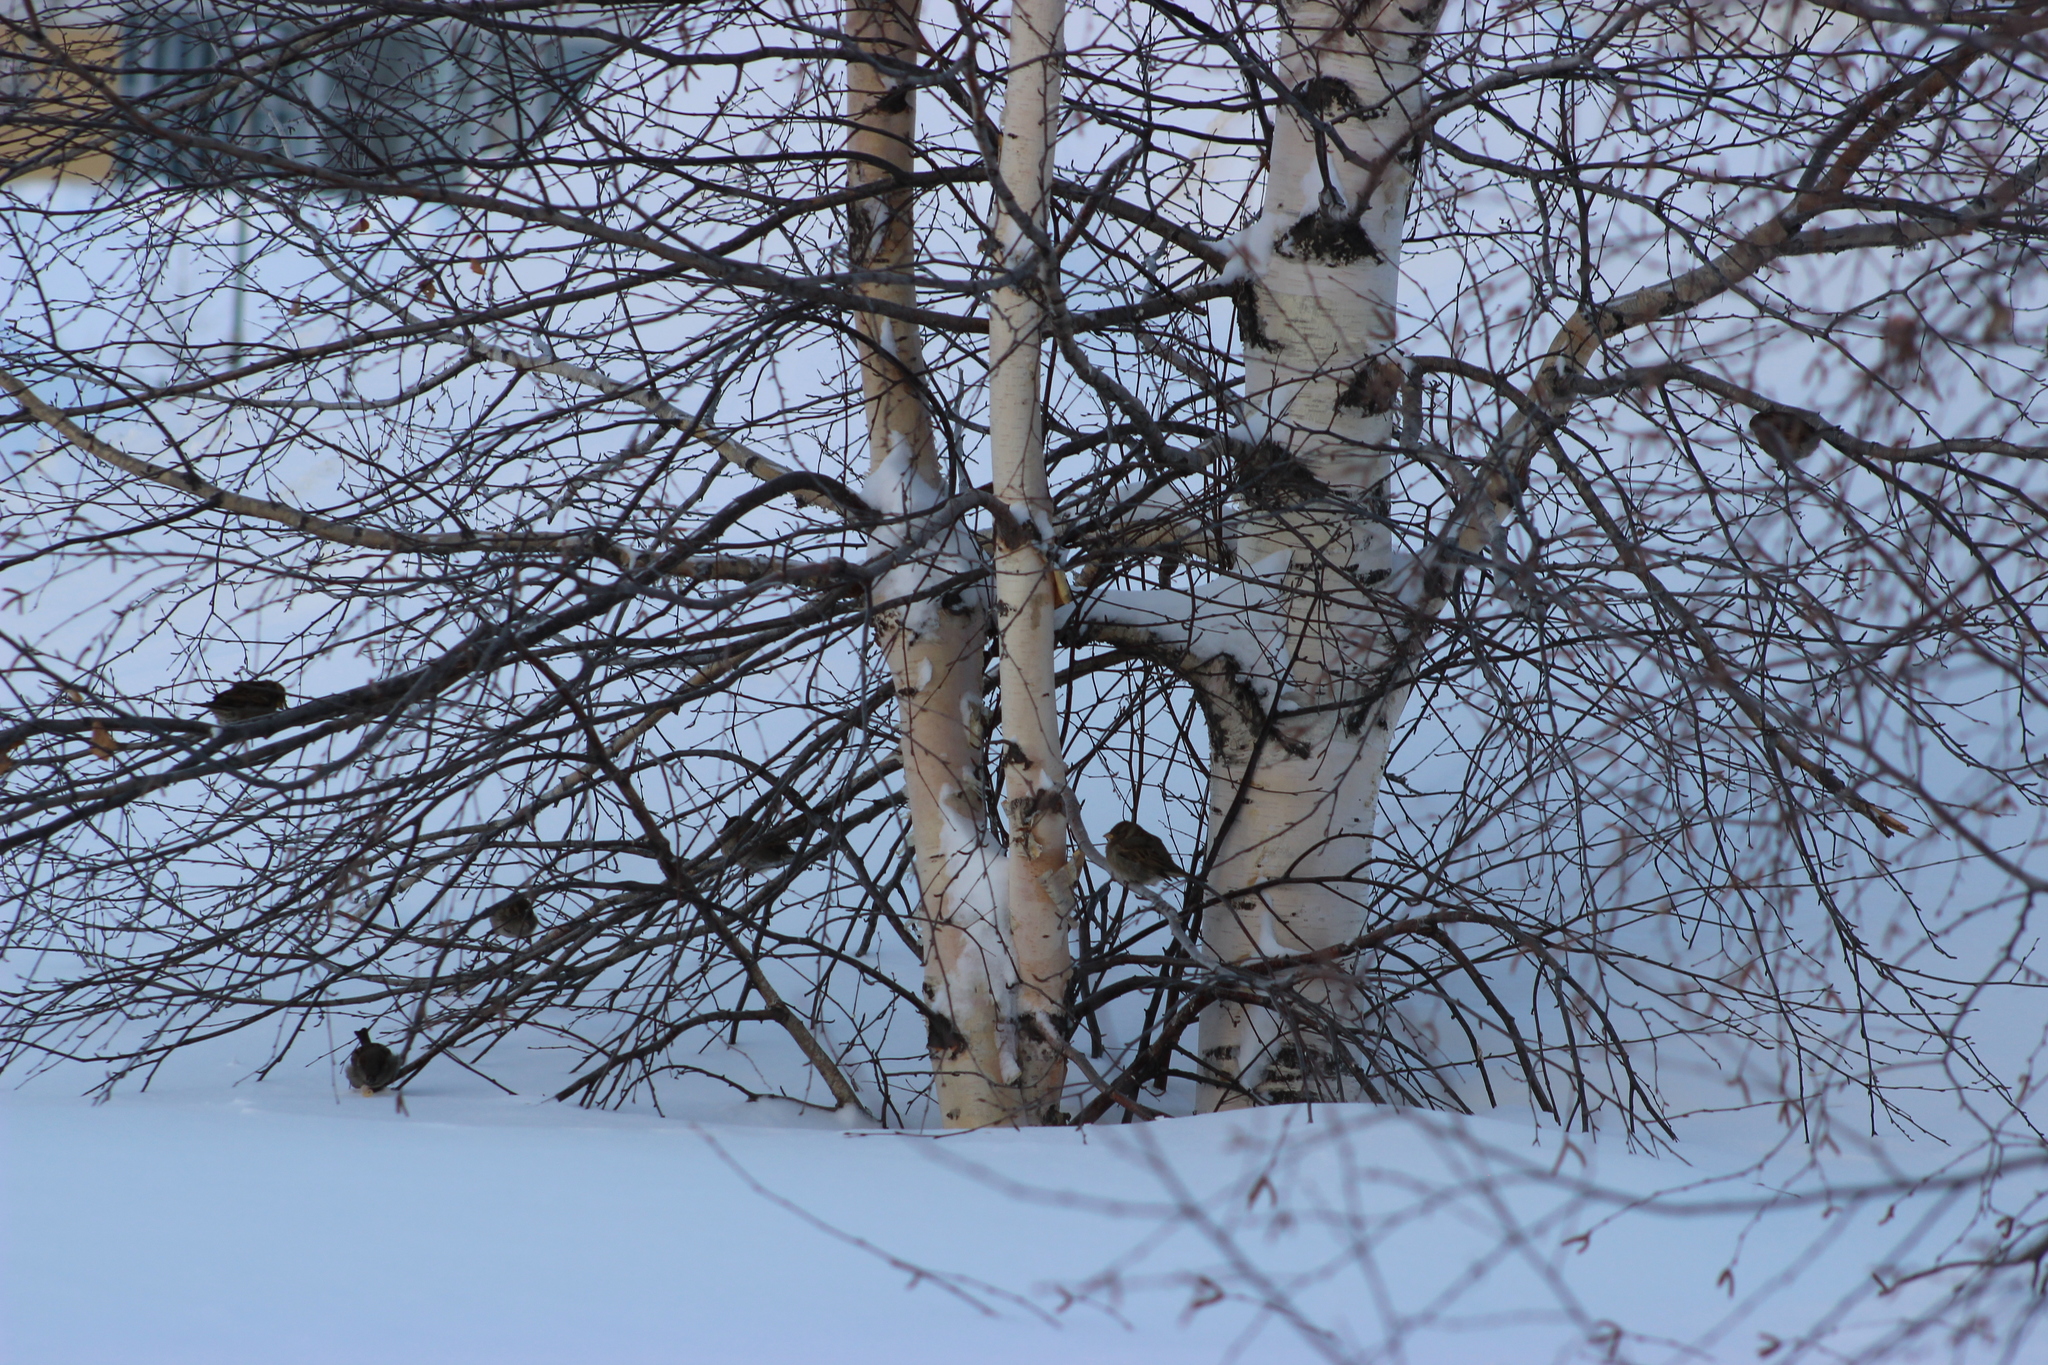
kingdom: Animalia
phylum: Chordata
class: Aves
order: Passeriformes
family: Passeridae
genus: Passer
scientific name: Passer domesticus
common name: House sparrow
